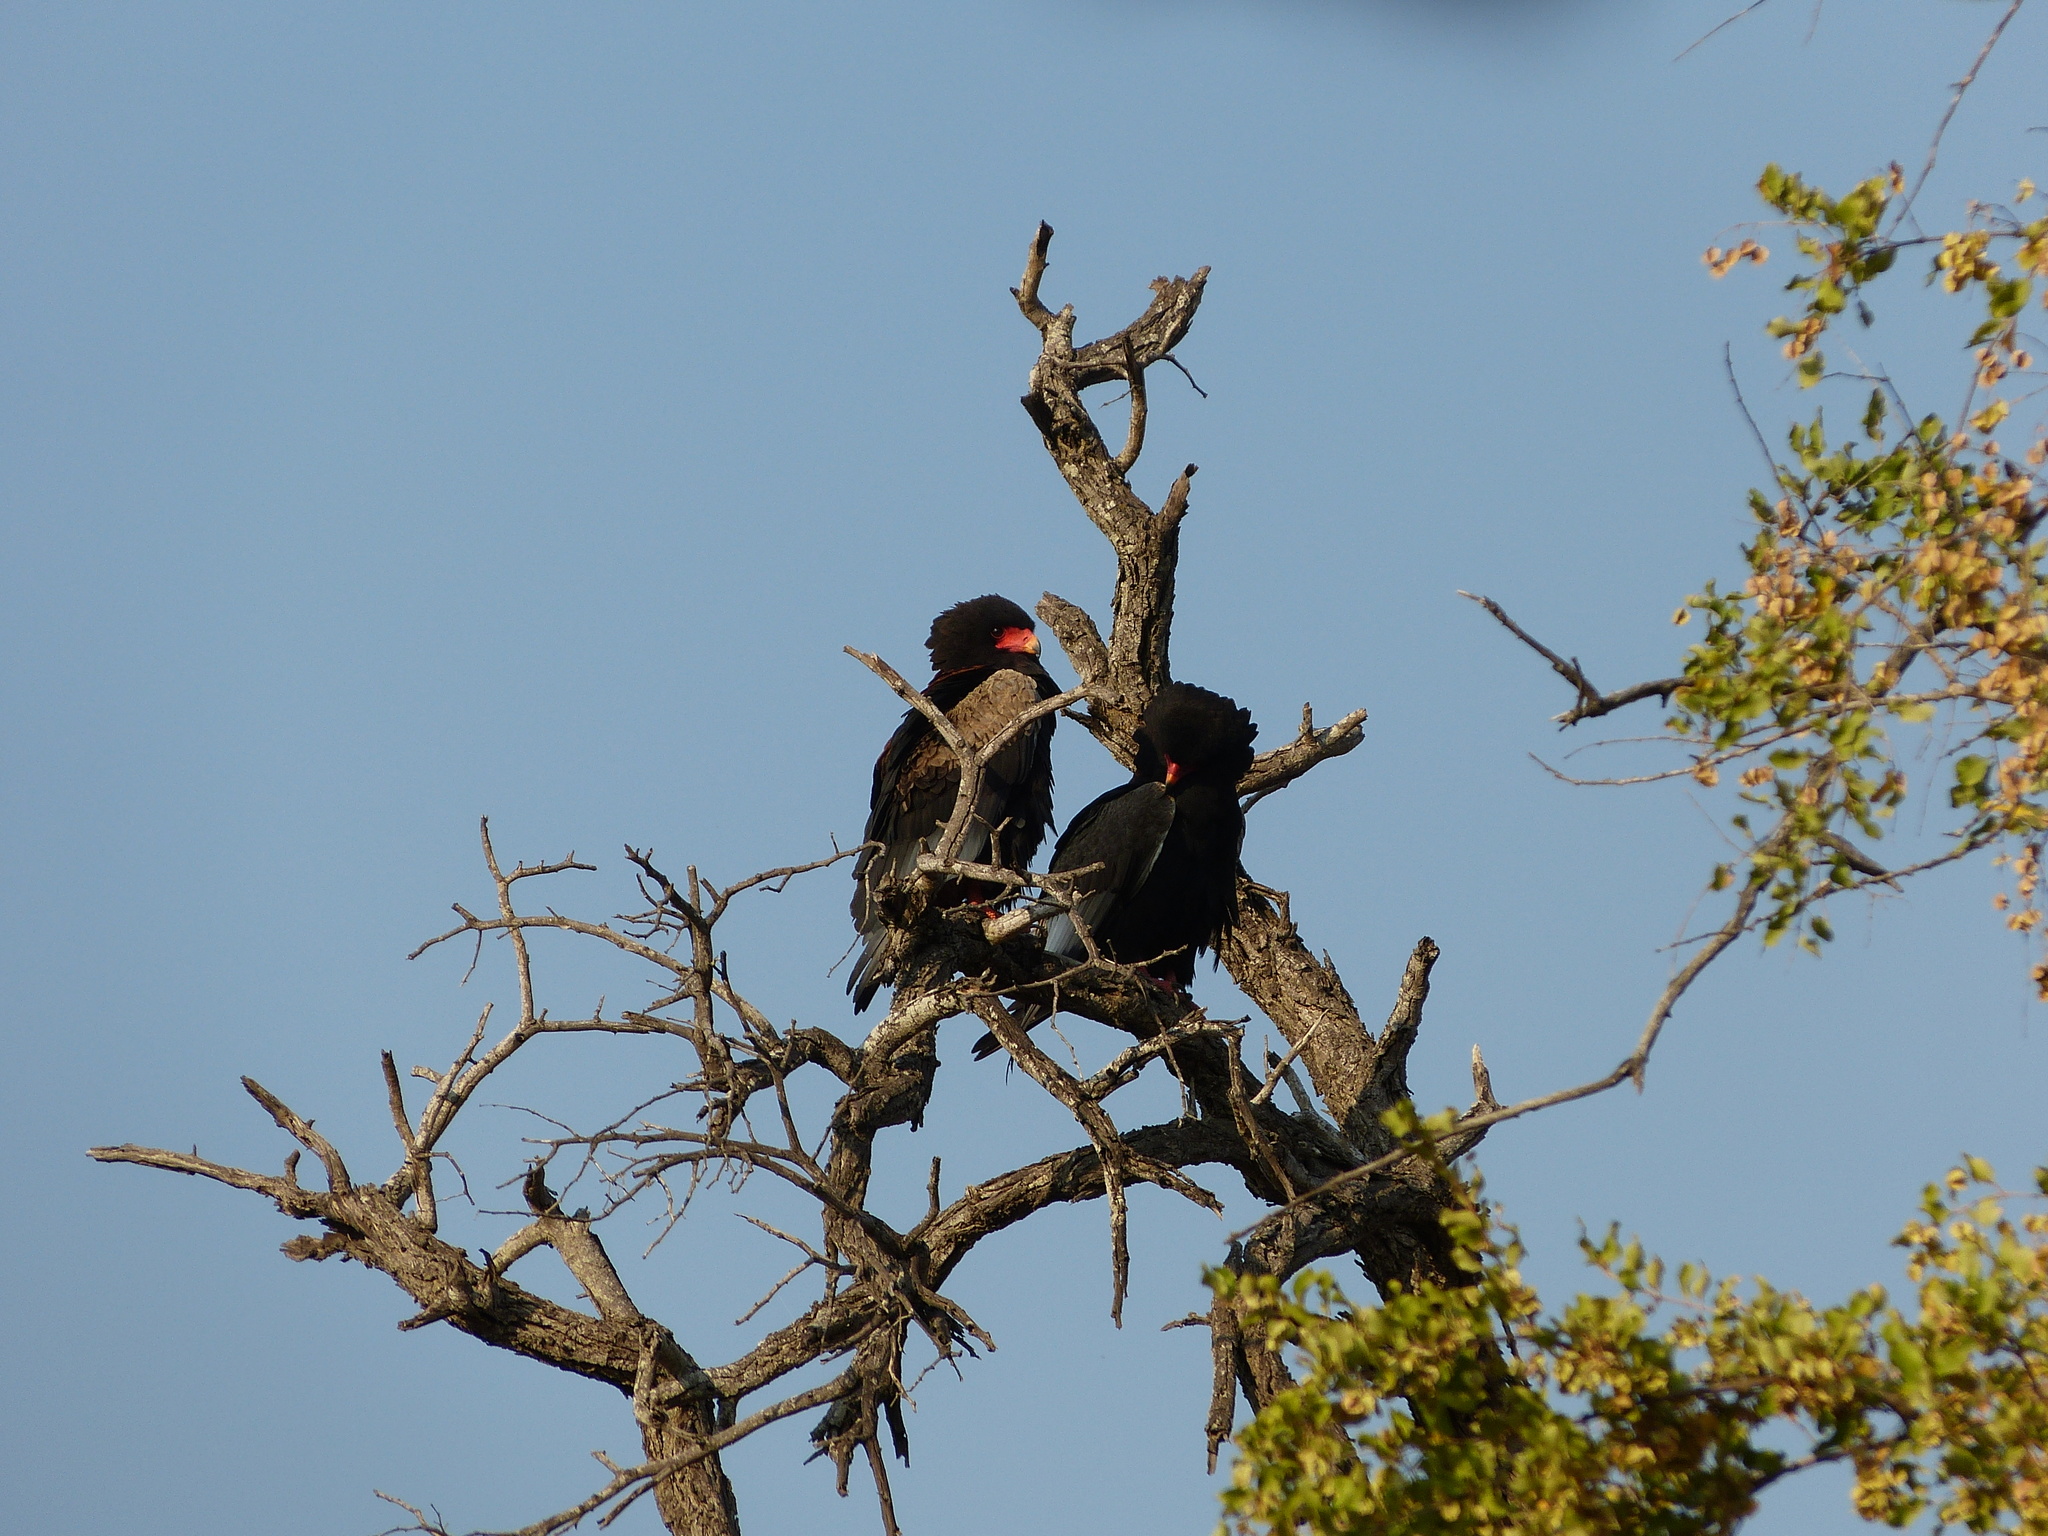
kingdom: Animalia
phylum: Chordata
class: Aves
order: Accipitriformes
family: Accipitridae
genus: Terathopius
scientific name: Terathopius ecaudatus
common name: Bateleur
